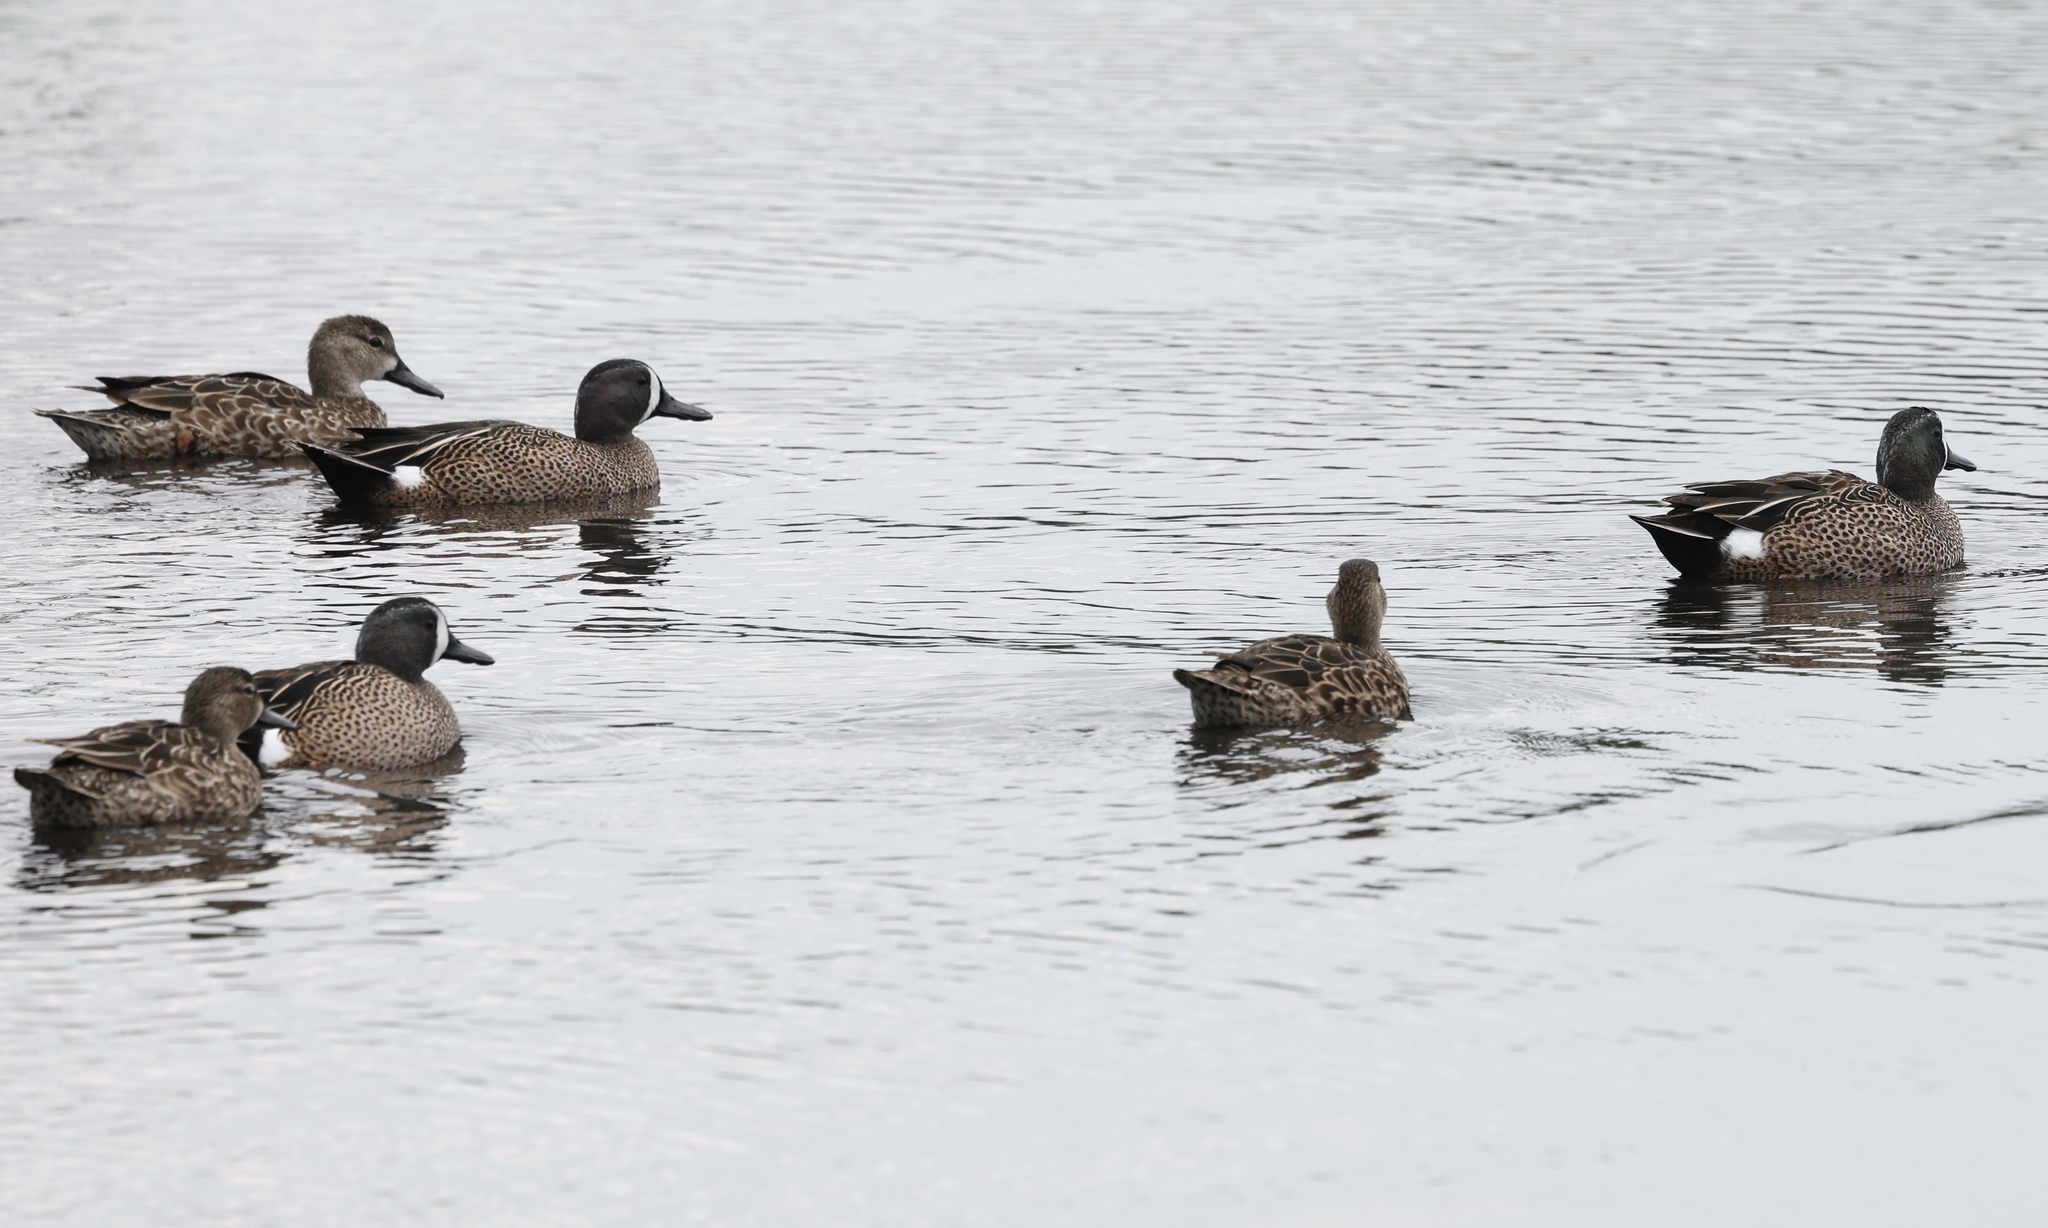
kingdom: Animalia
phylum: Chordata
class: Aves
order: Anseriformes
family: Anatidae
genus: Spatula
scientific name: Spatula discors
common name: Blue-winged teal
